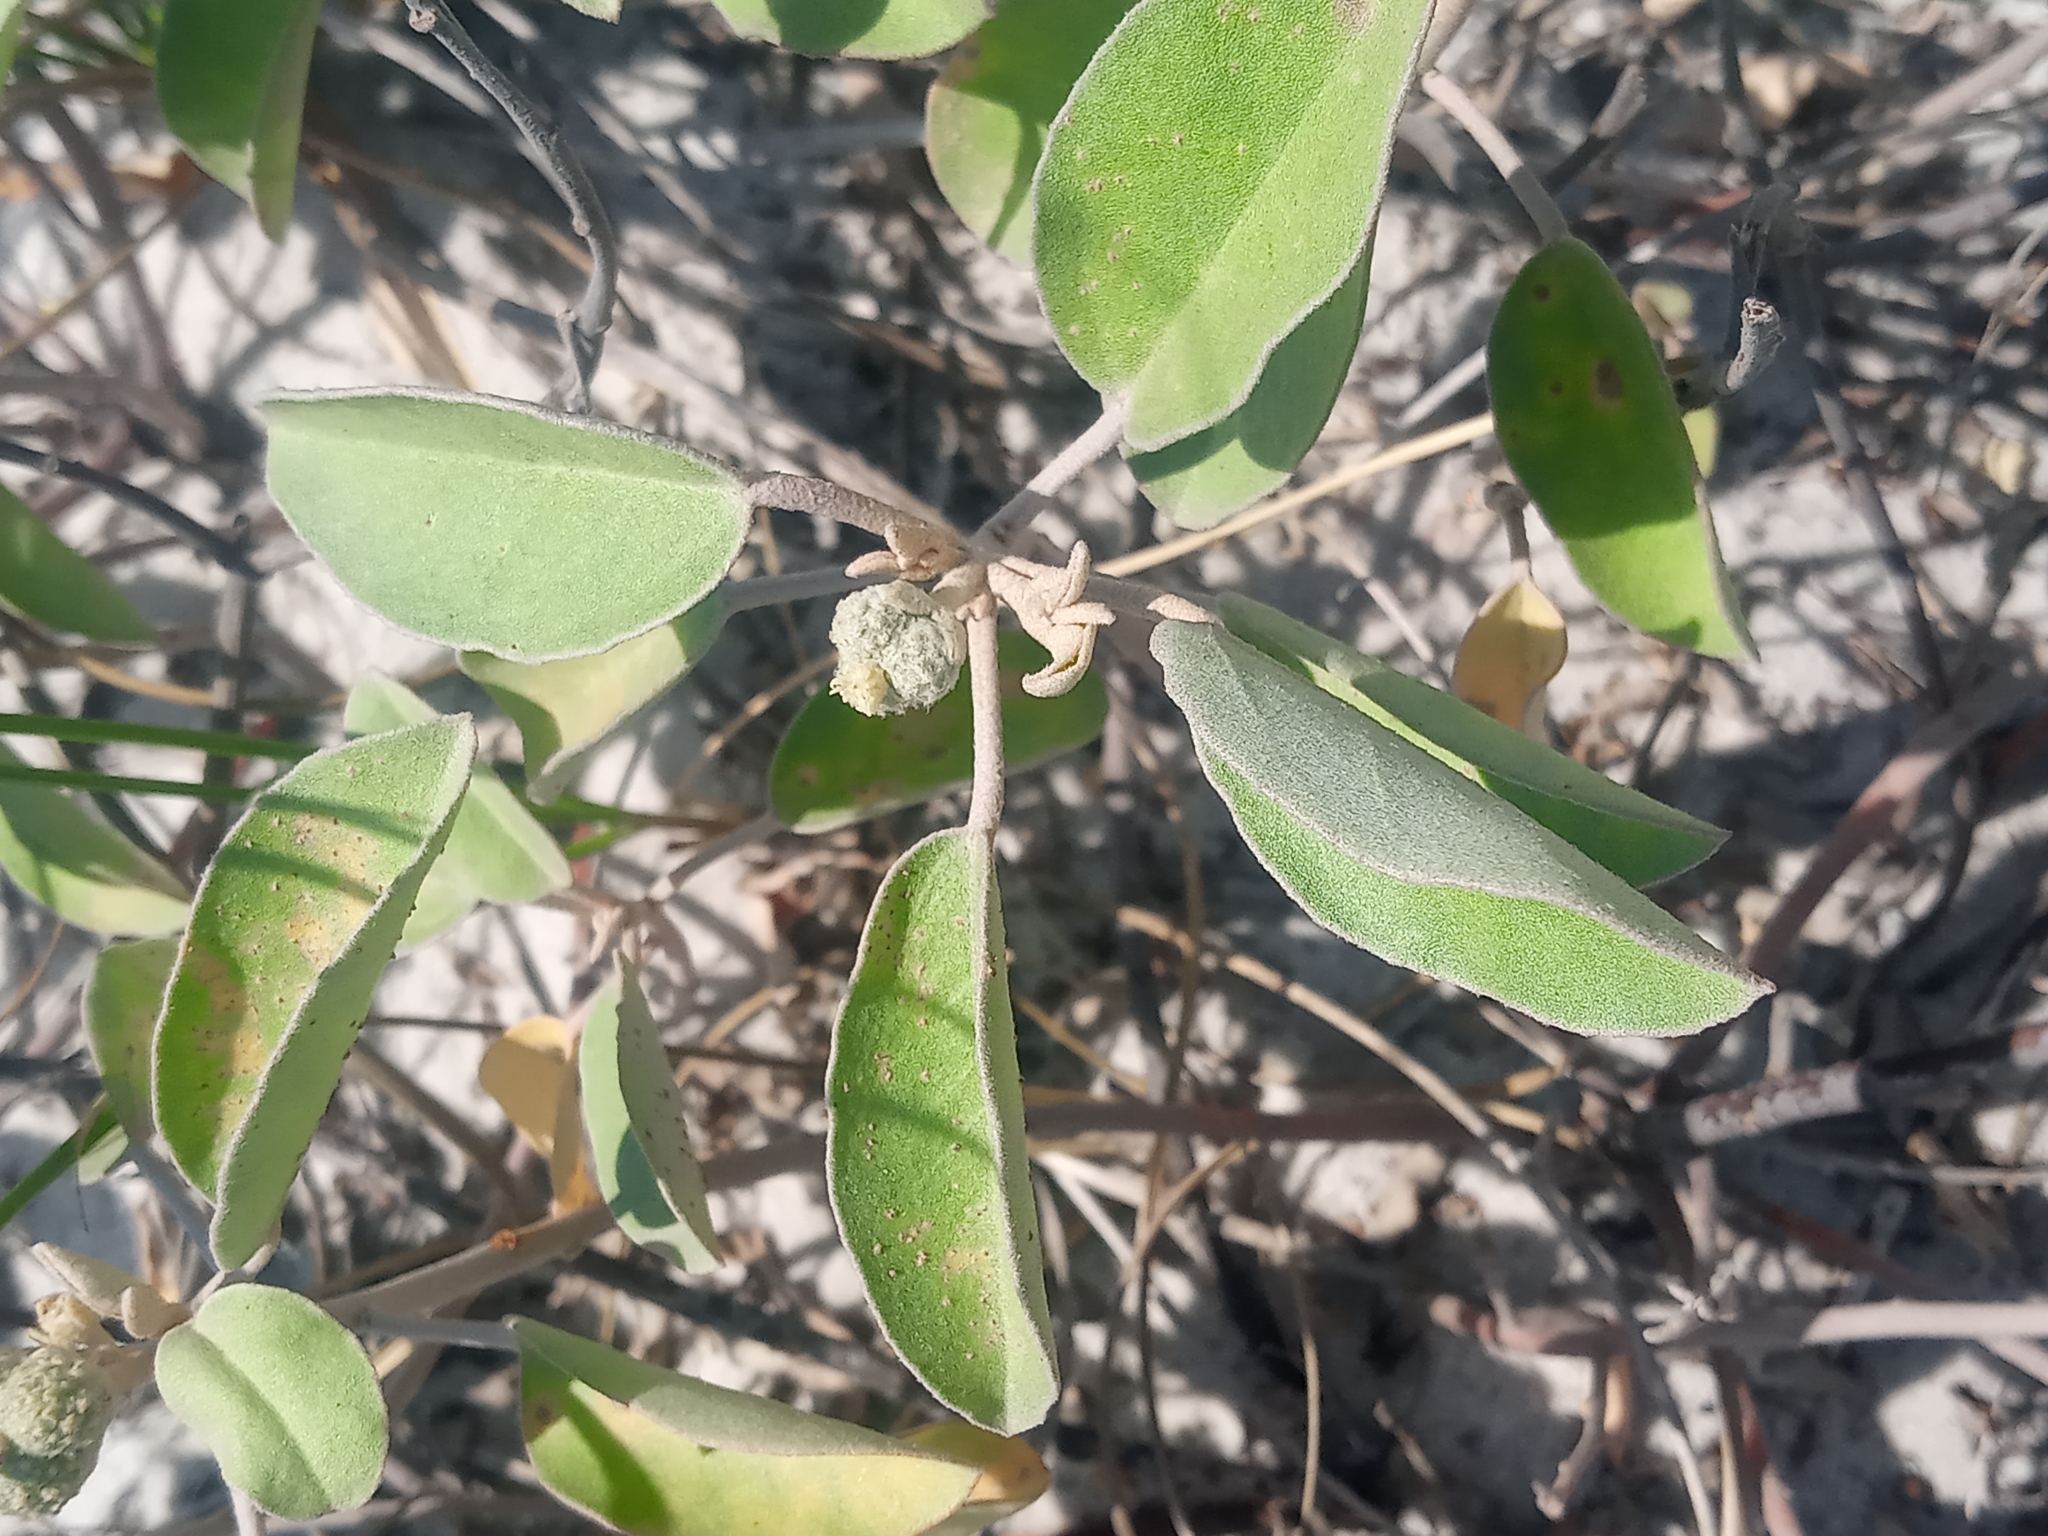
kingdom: Plantae
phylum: Tracheophyta
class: Magnoliopsida
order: Malpighiales
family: Euphorbiaceae
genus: Croton
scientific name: Croton punctatus
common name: Beach-tea
